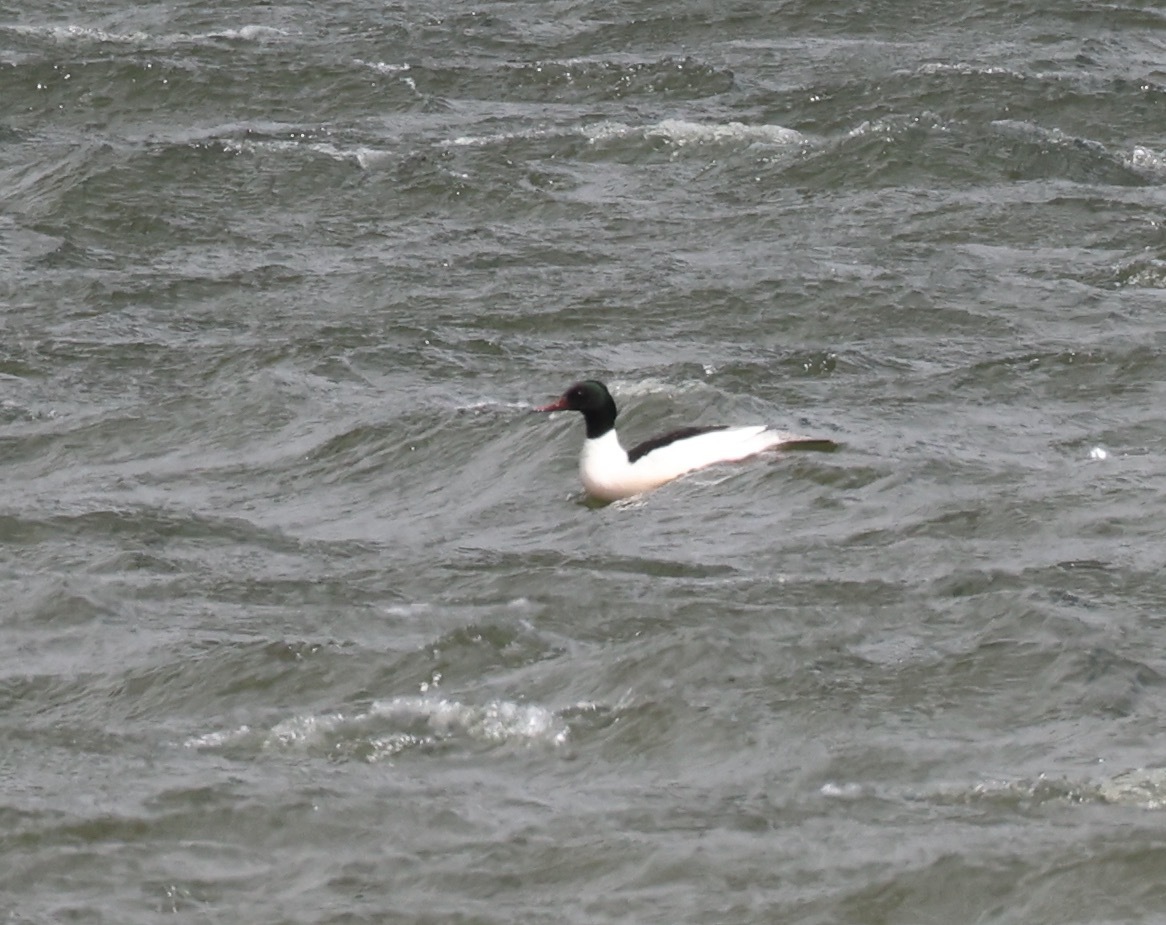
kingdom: Animalia
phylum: Chordata
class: Aves
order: Anseriformes
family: Anatidae
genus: Mergus
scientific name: Mergus merganser
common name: Common merganser
